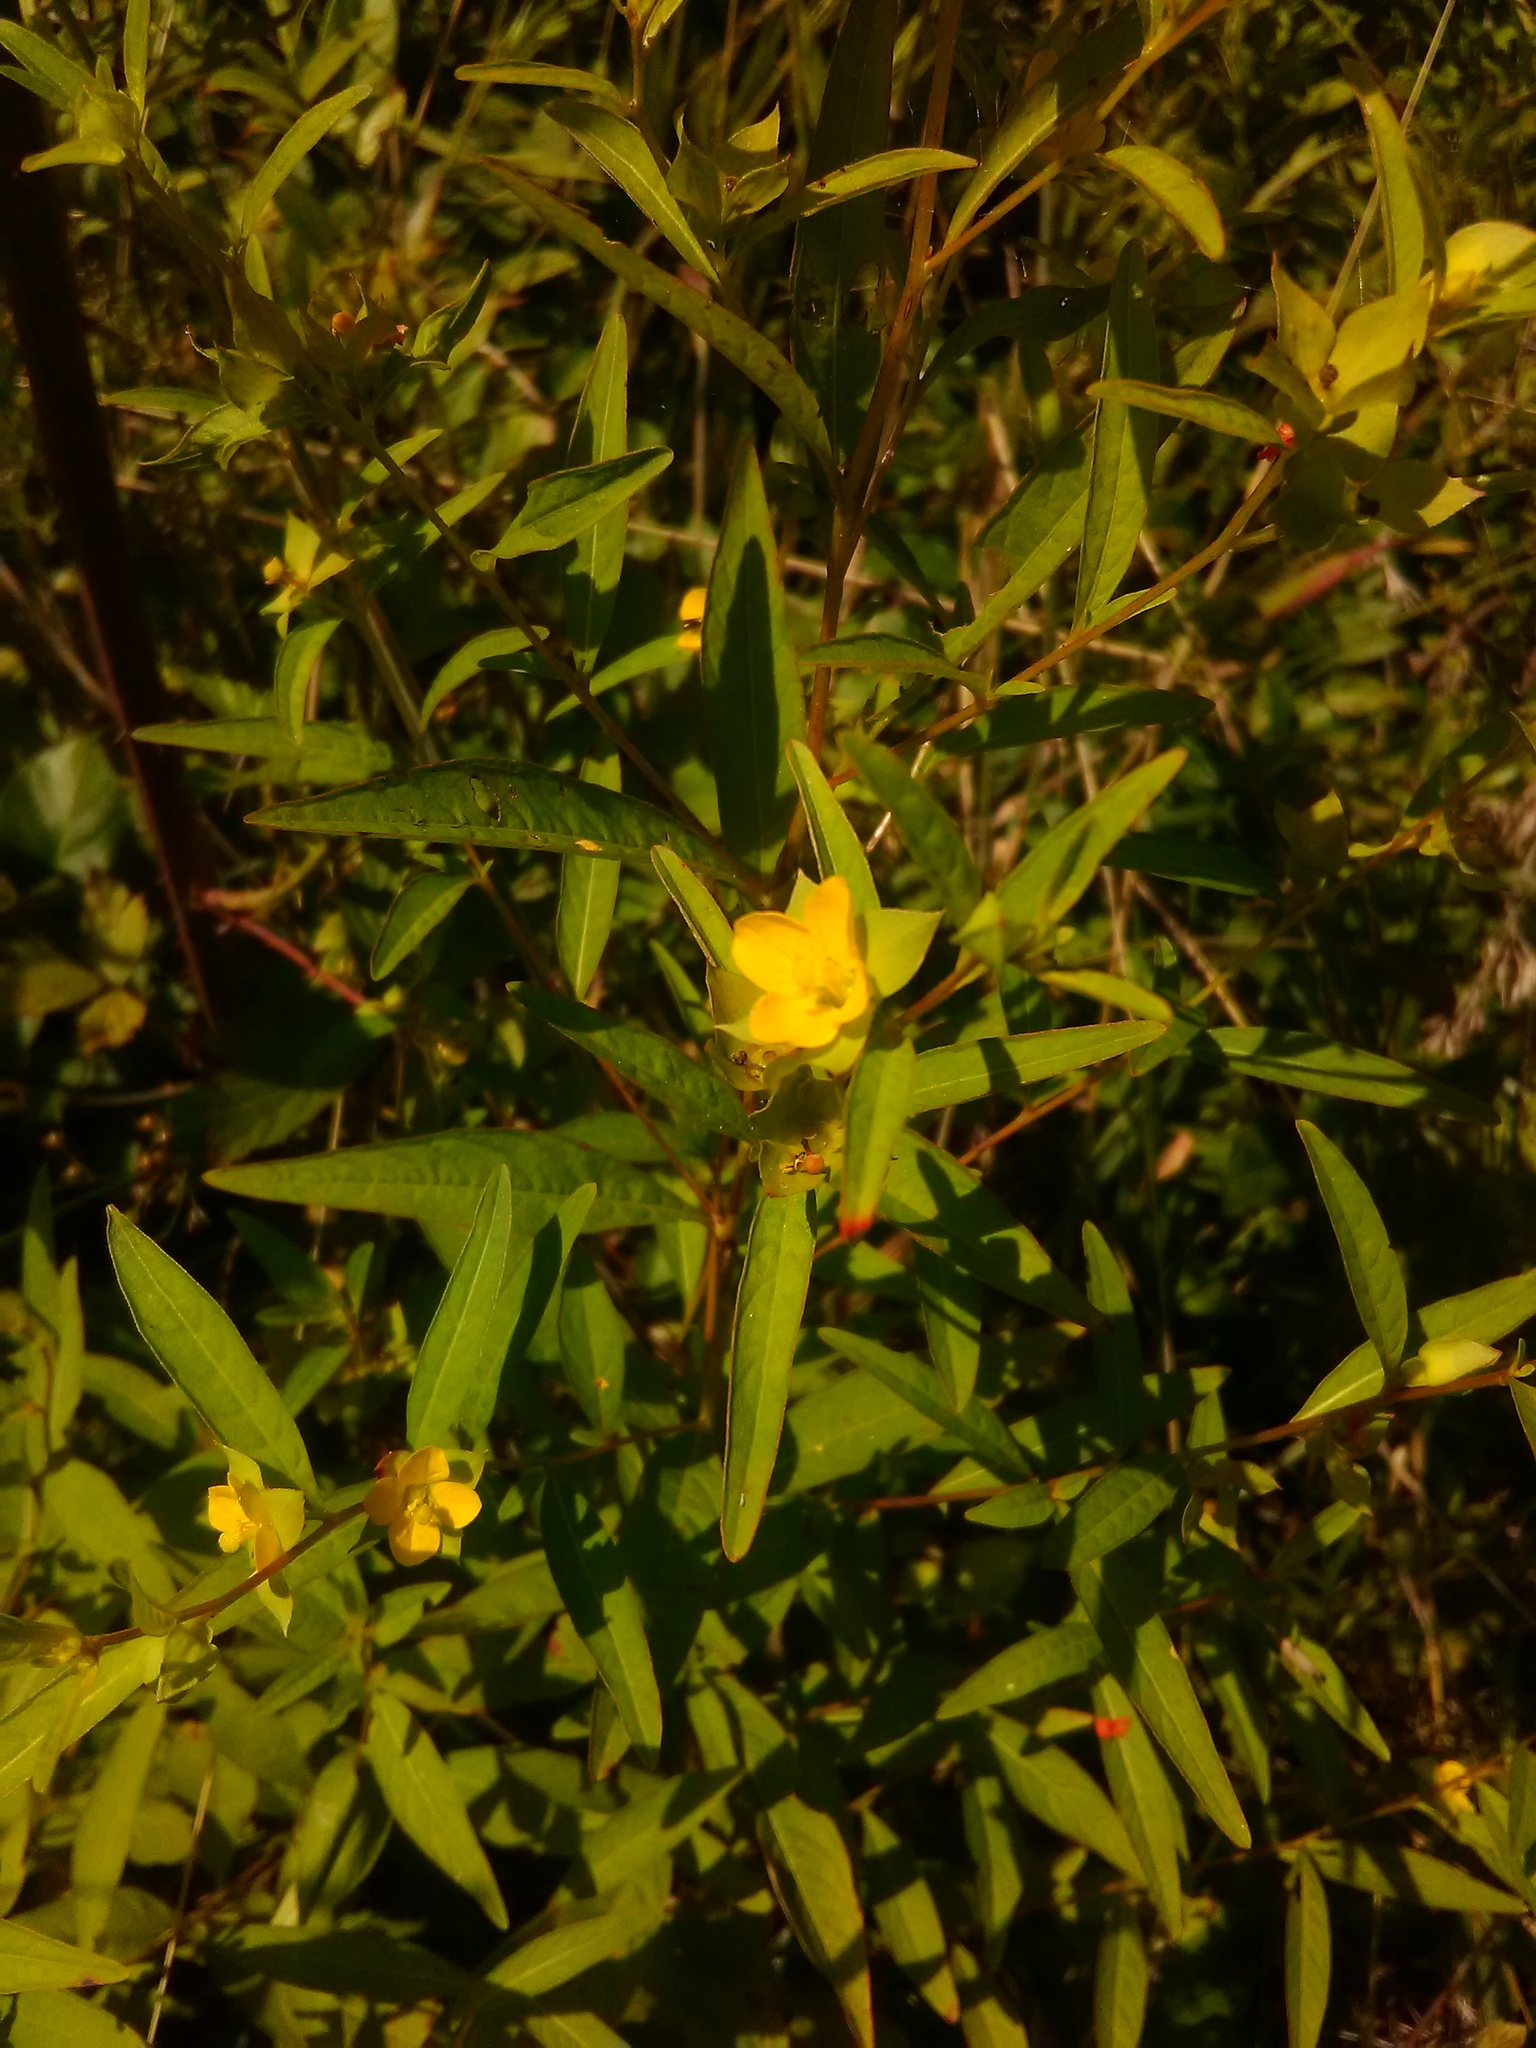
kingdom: Plantae
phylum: Tracheophyta
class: Magnoliopsida
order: Myrtales
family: Onagraceae
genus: Ludwigia
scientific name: Ludwigia alternifolia
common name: Rattlebox
